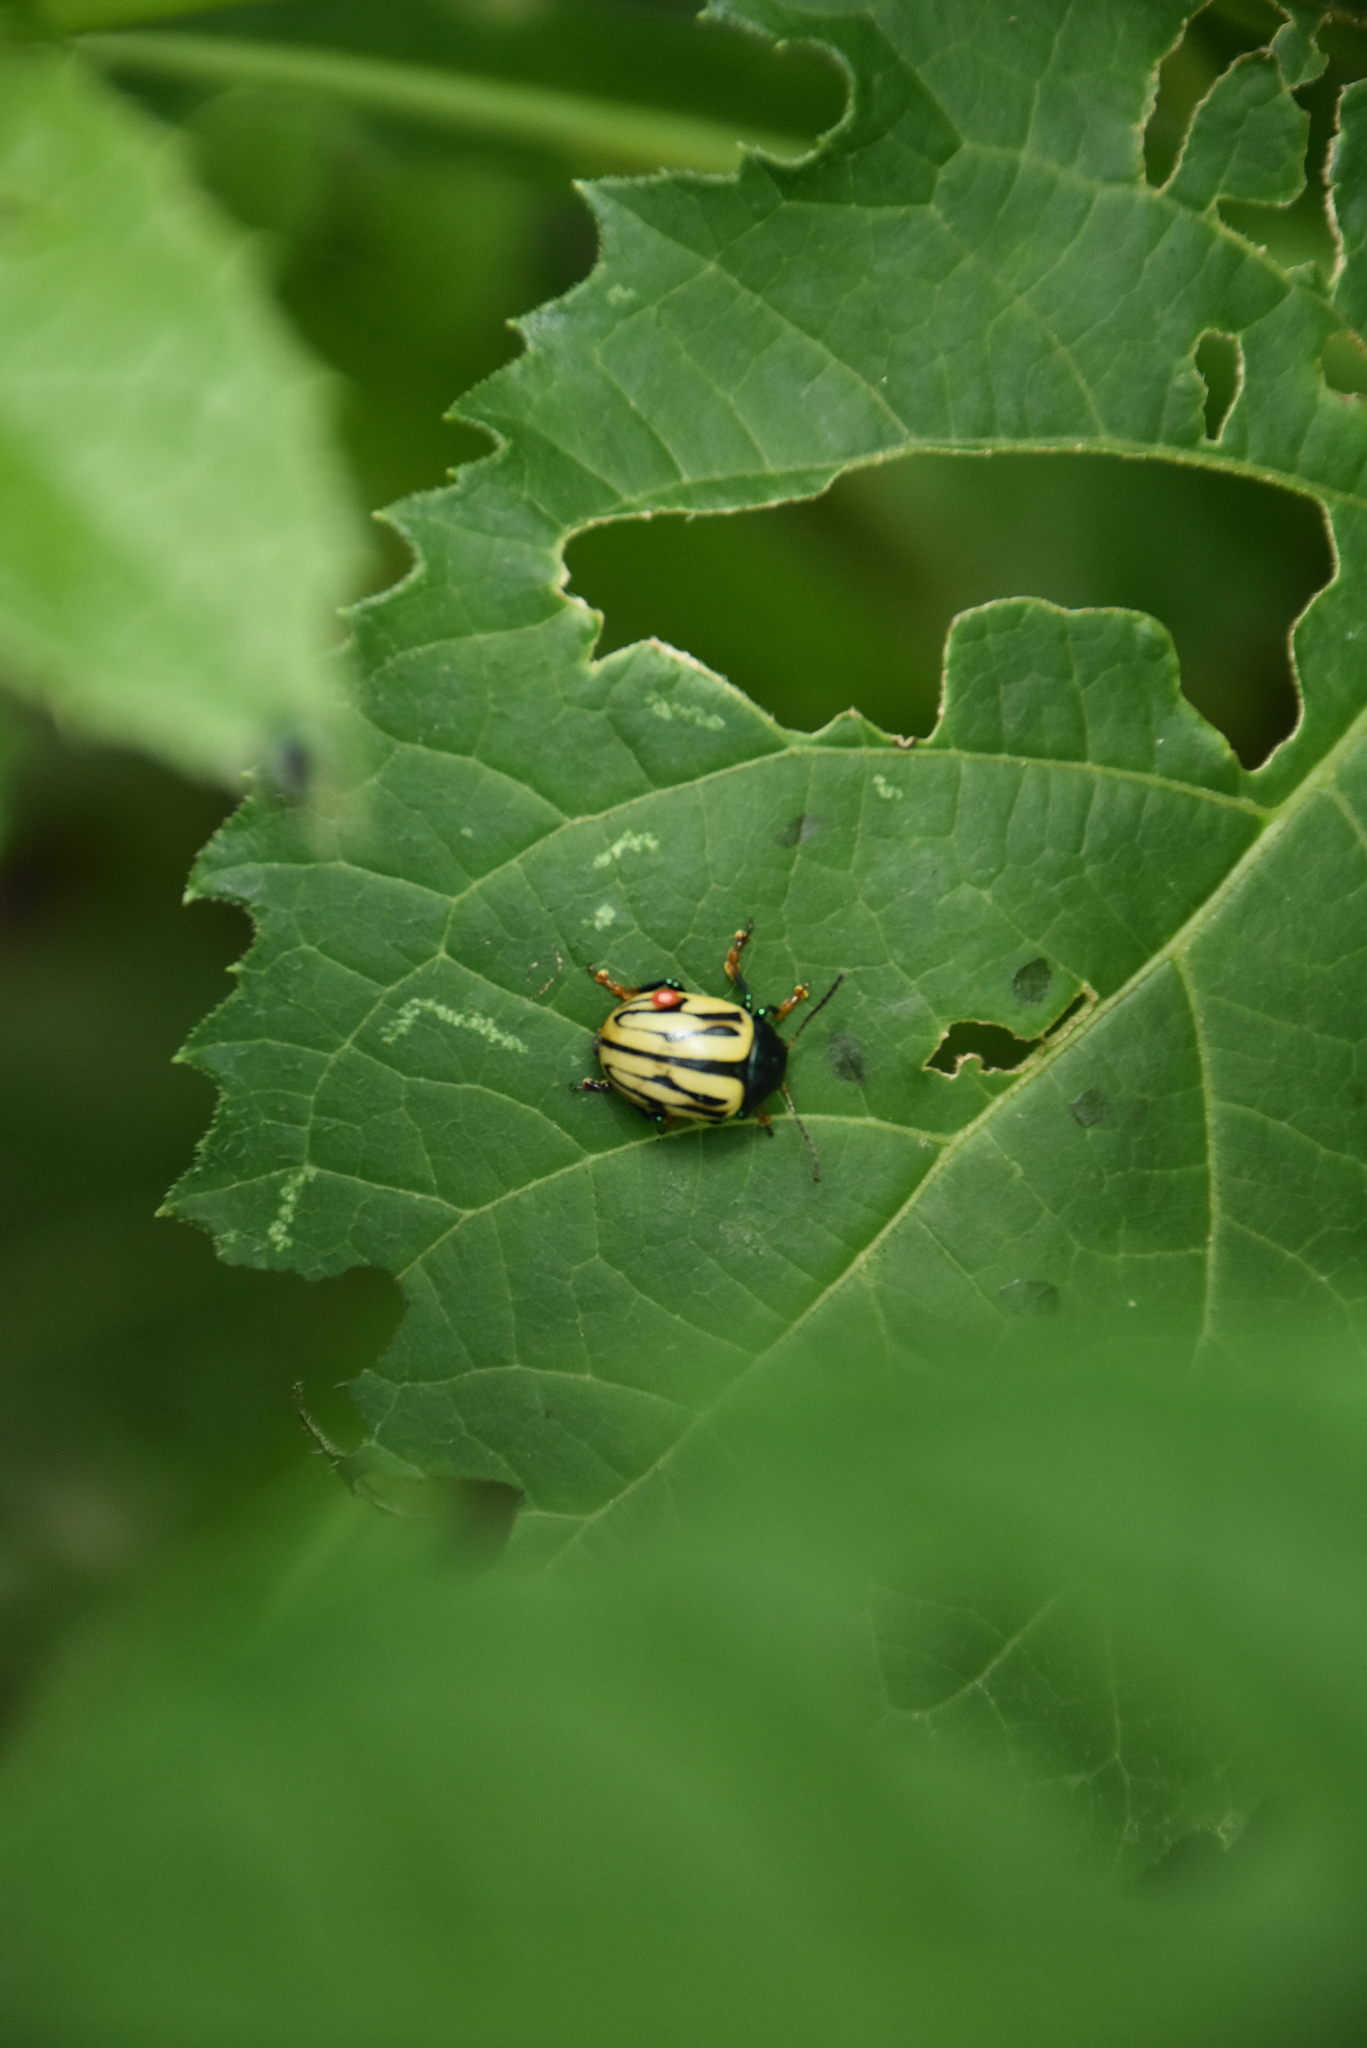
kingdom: Animalia
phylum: Arthropoda
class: Insecta
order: Coleoptera
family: Chrysomelidae
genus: Leptinotarsa
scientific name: Leptinotarsa
